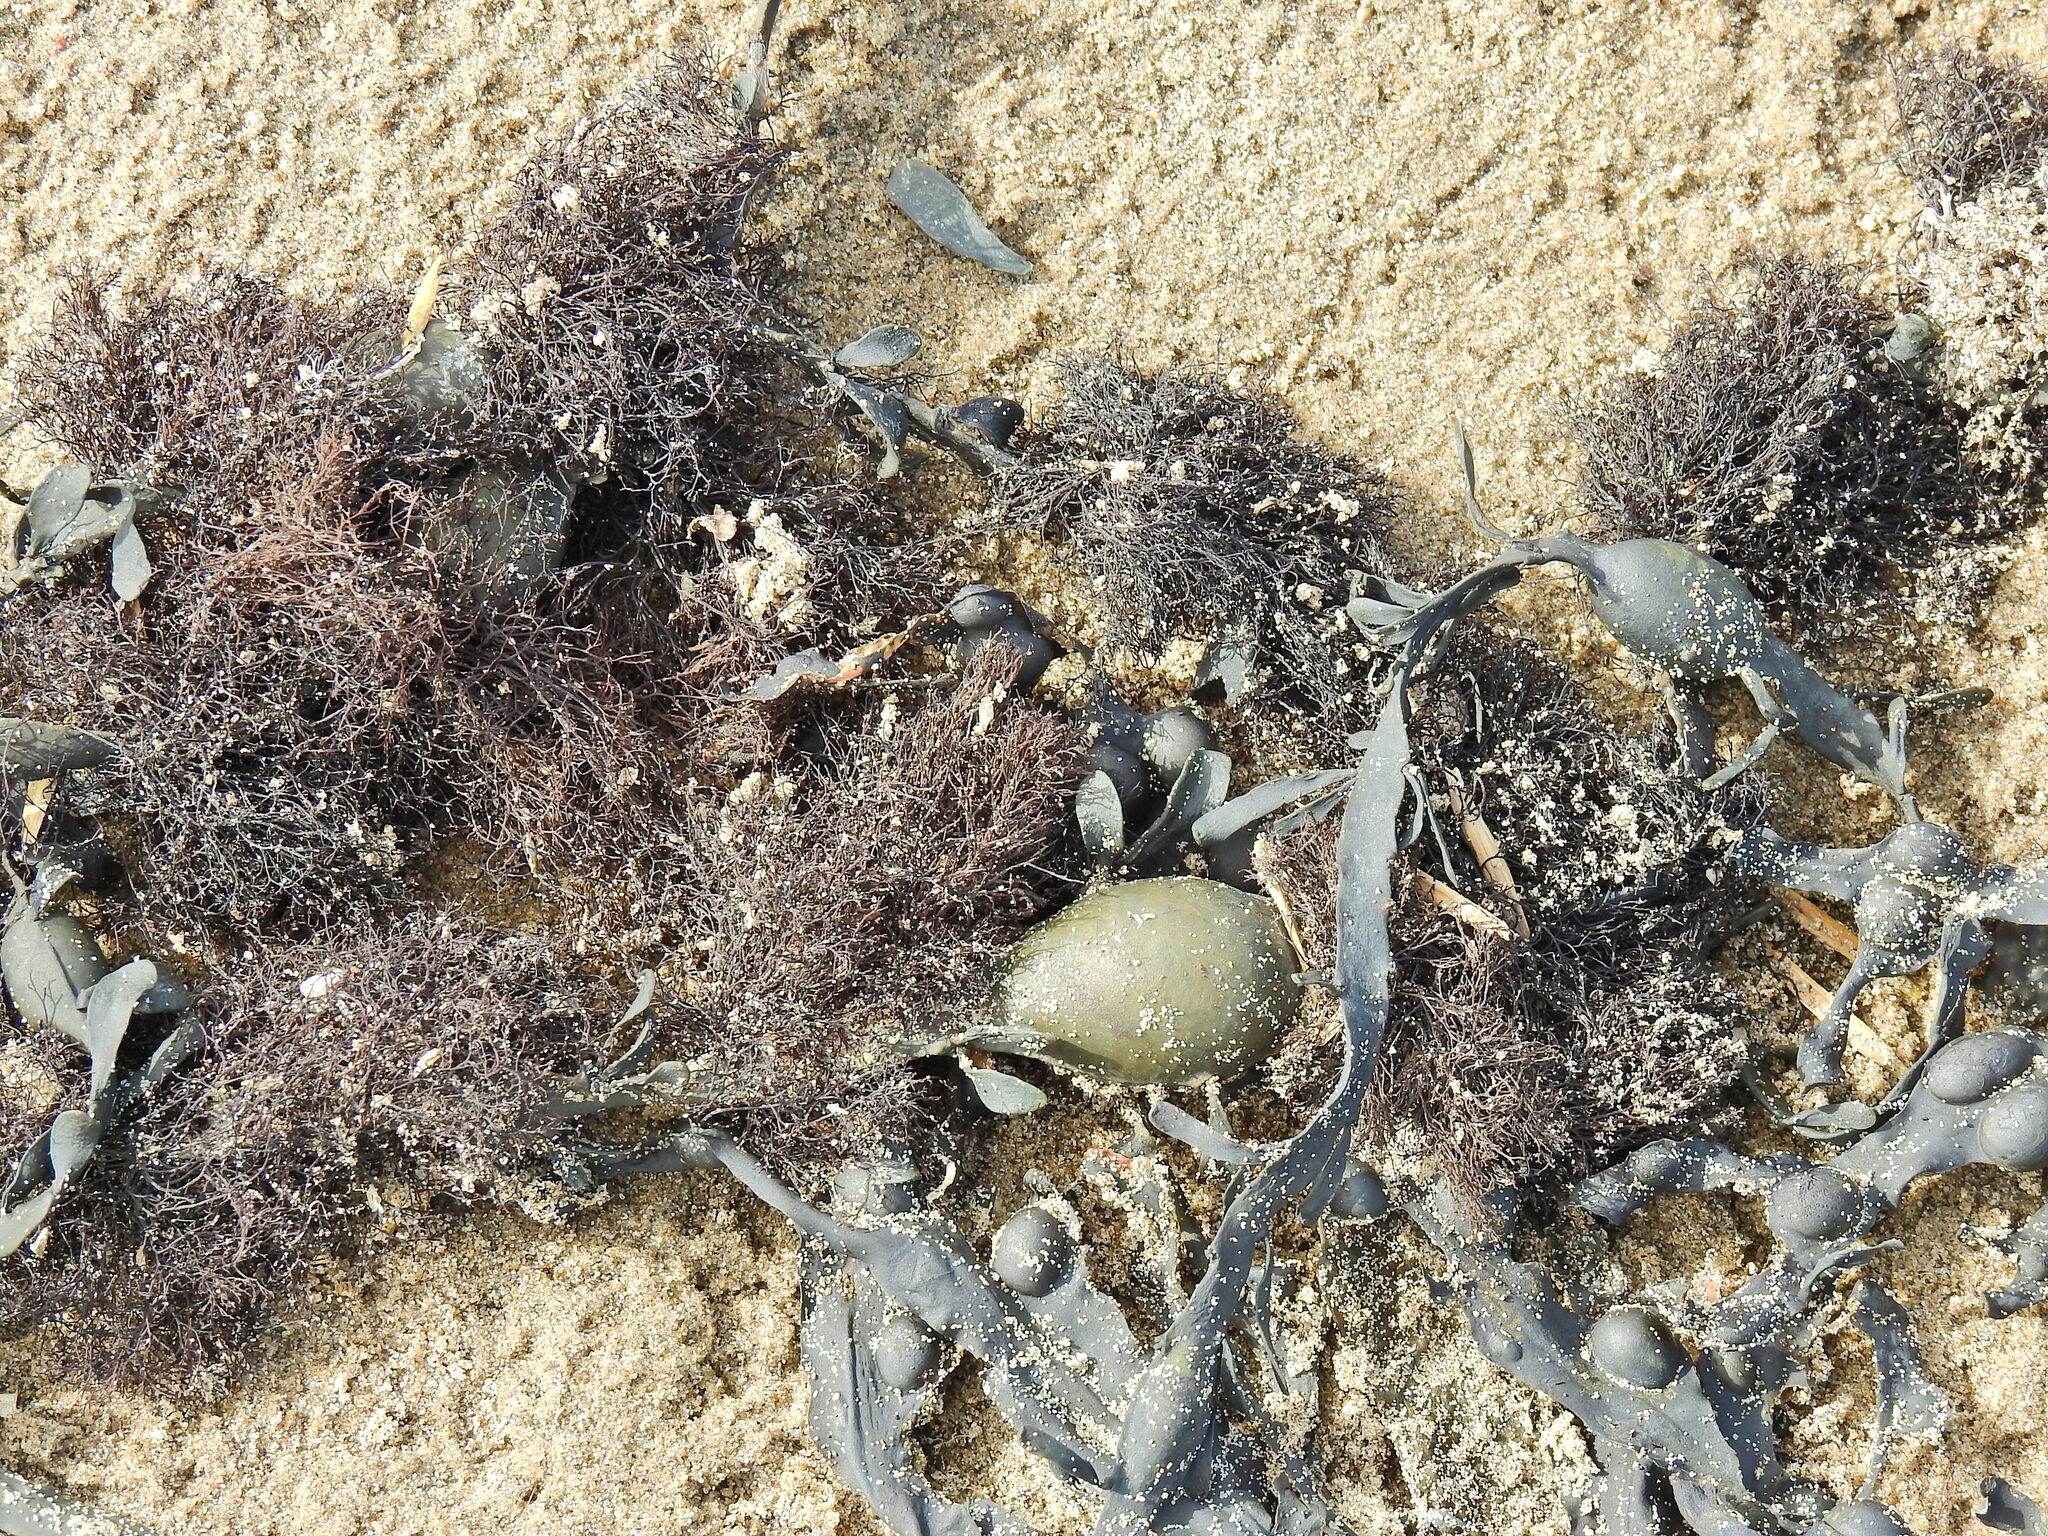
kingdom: Plantae
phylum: Rhodophyta
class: Florideophyceae
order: Ceramiales
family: Rhodomelaceae
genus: Vertebrata
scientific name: Vertebrata lanosa
